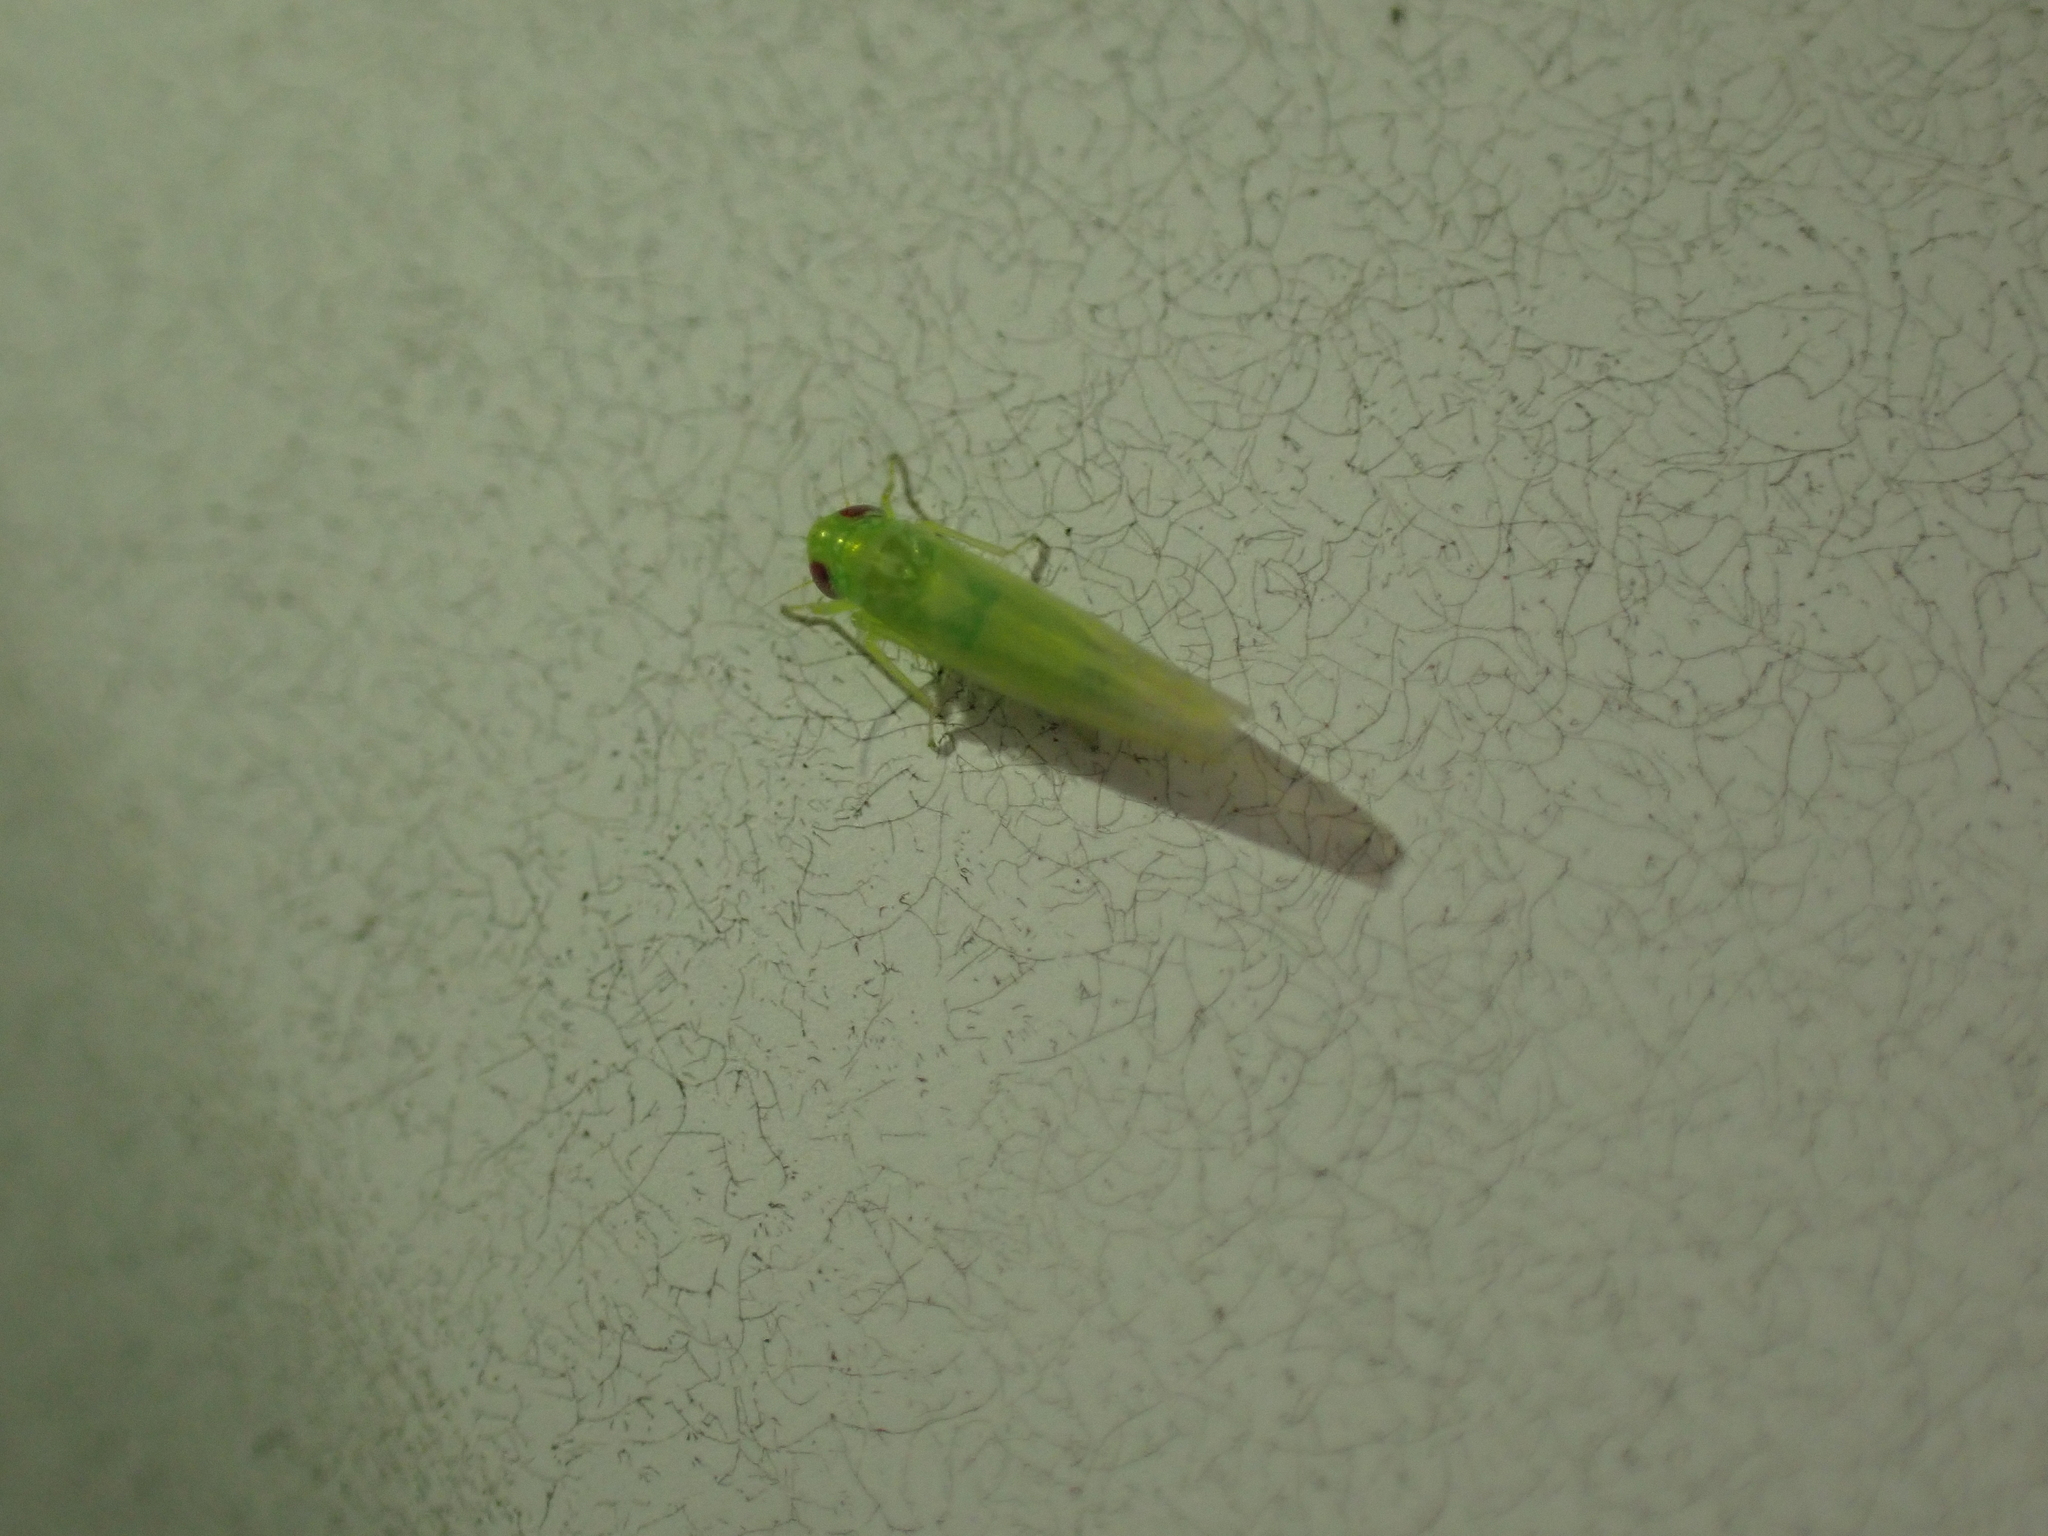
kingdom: Animalia
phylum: Arthropoda
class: Insecta
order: Hemiptera
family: Cicadellidae
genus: Empoasca
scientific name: Empoasca fabae
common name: Potato leafhopper
